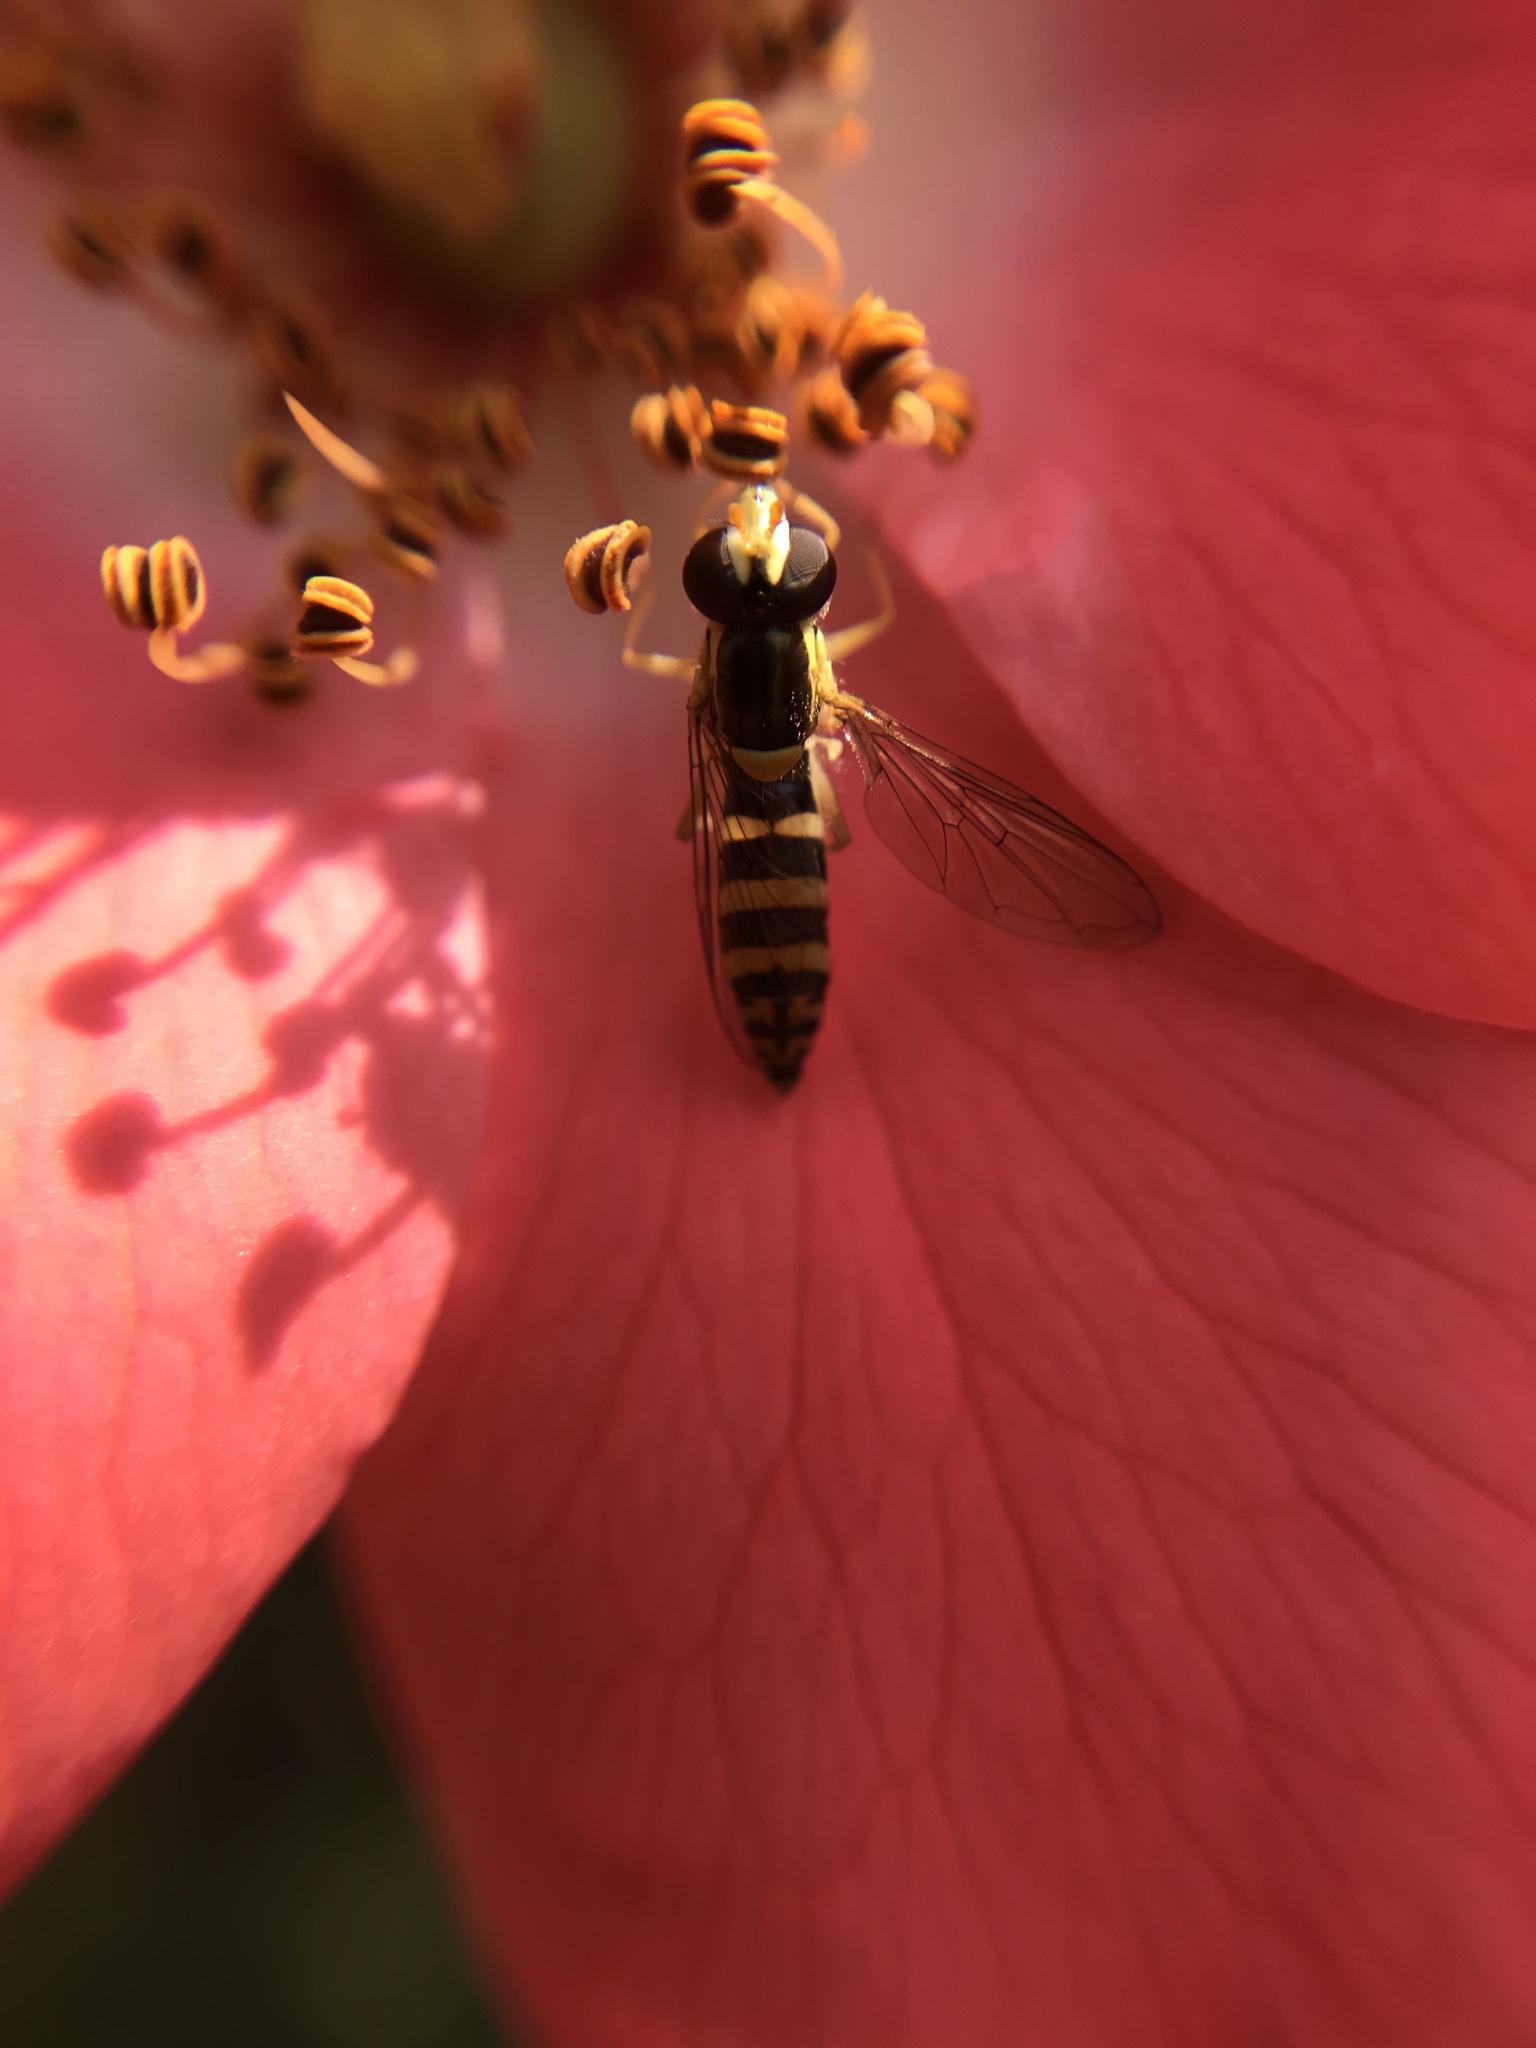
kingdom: Animalia
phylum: Arthropoda
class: Insecta
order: Diptera
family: Syrphidae
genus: Sphaerophoria
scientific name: Sphaerophoria
